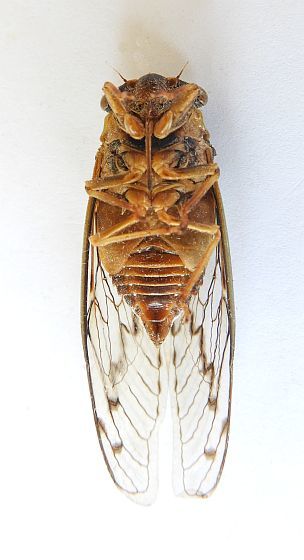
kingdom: Animalia
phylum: Arthropoda
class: Insecta
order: Hemiptera
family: Cicadidae
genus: Diceroprocta
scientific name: Diceroprocta swalei
